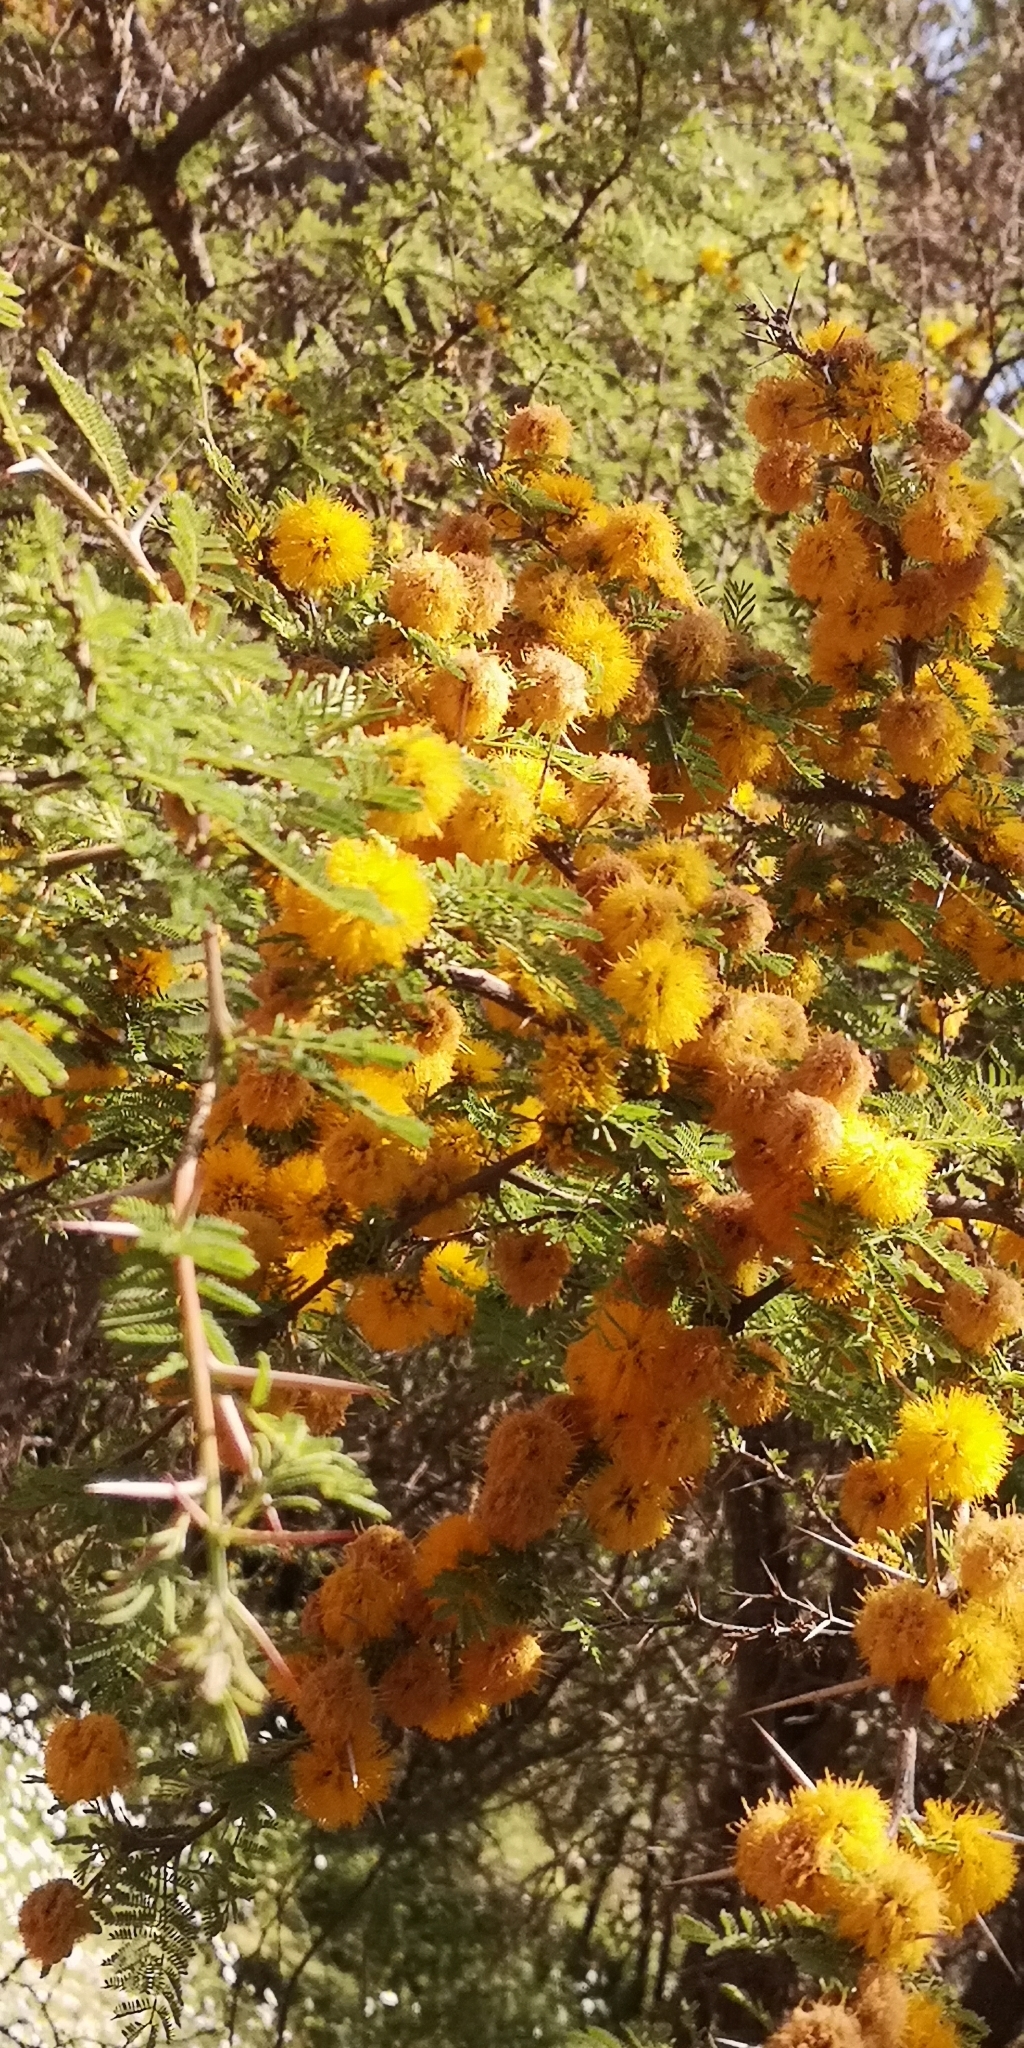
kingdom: Plantae
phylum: Tracheophyta
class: Magnoliopsida
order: Fabales
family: Fabaceae
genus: Vachellia
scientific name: Vachellia caven
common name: Roman cassie
